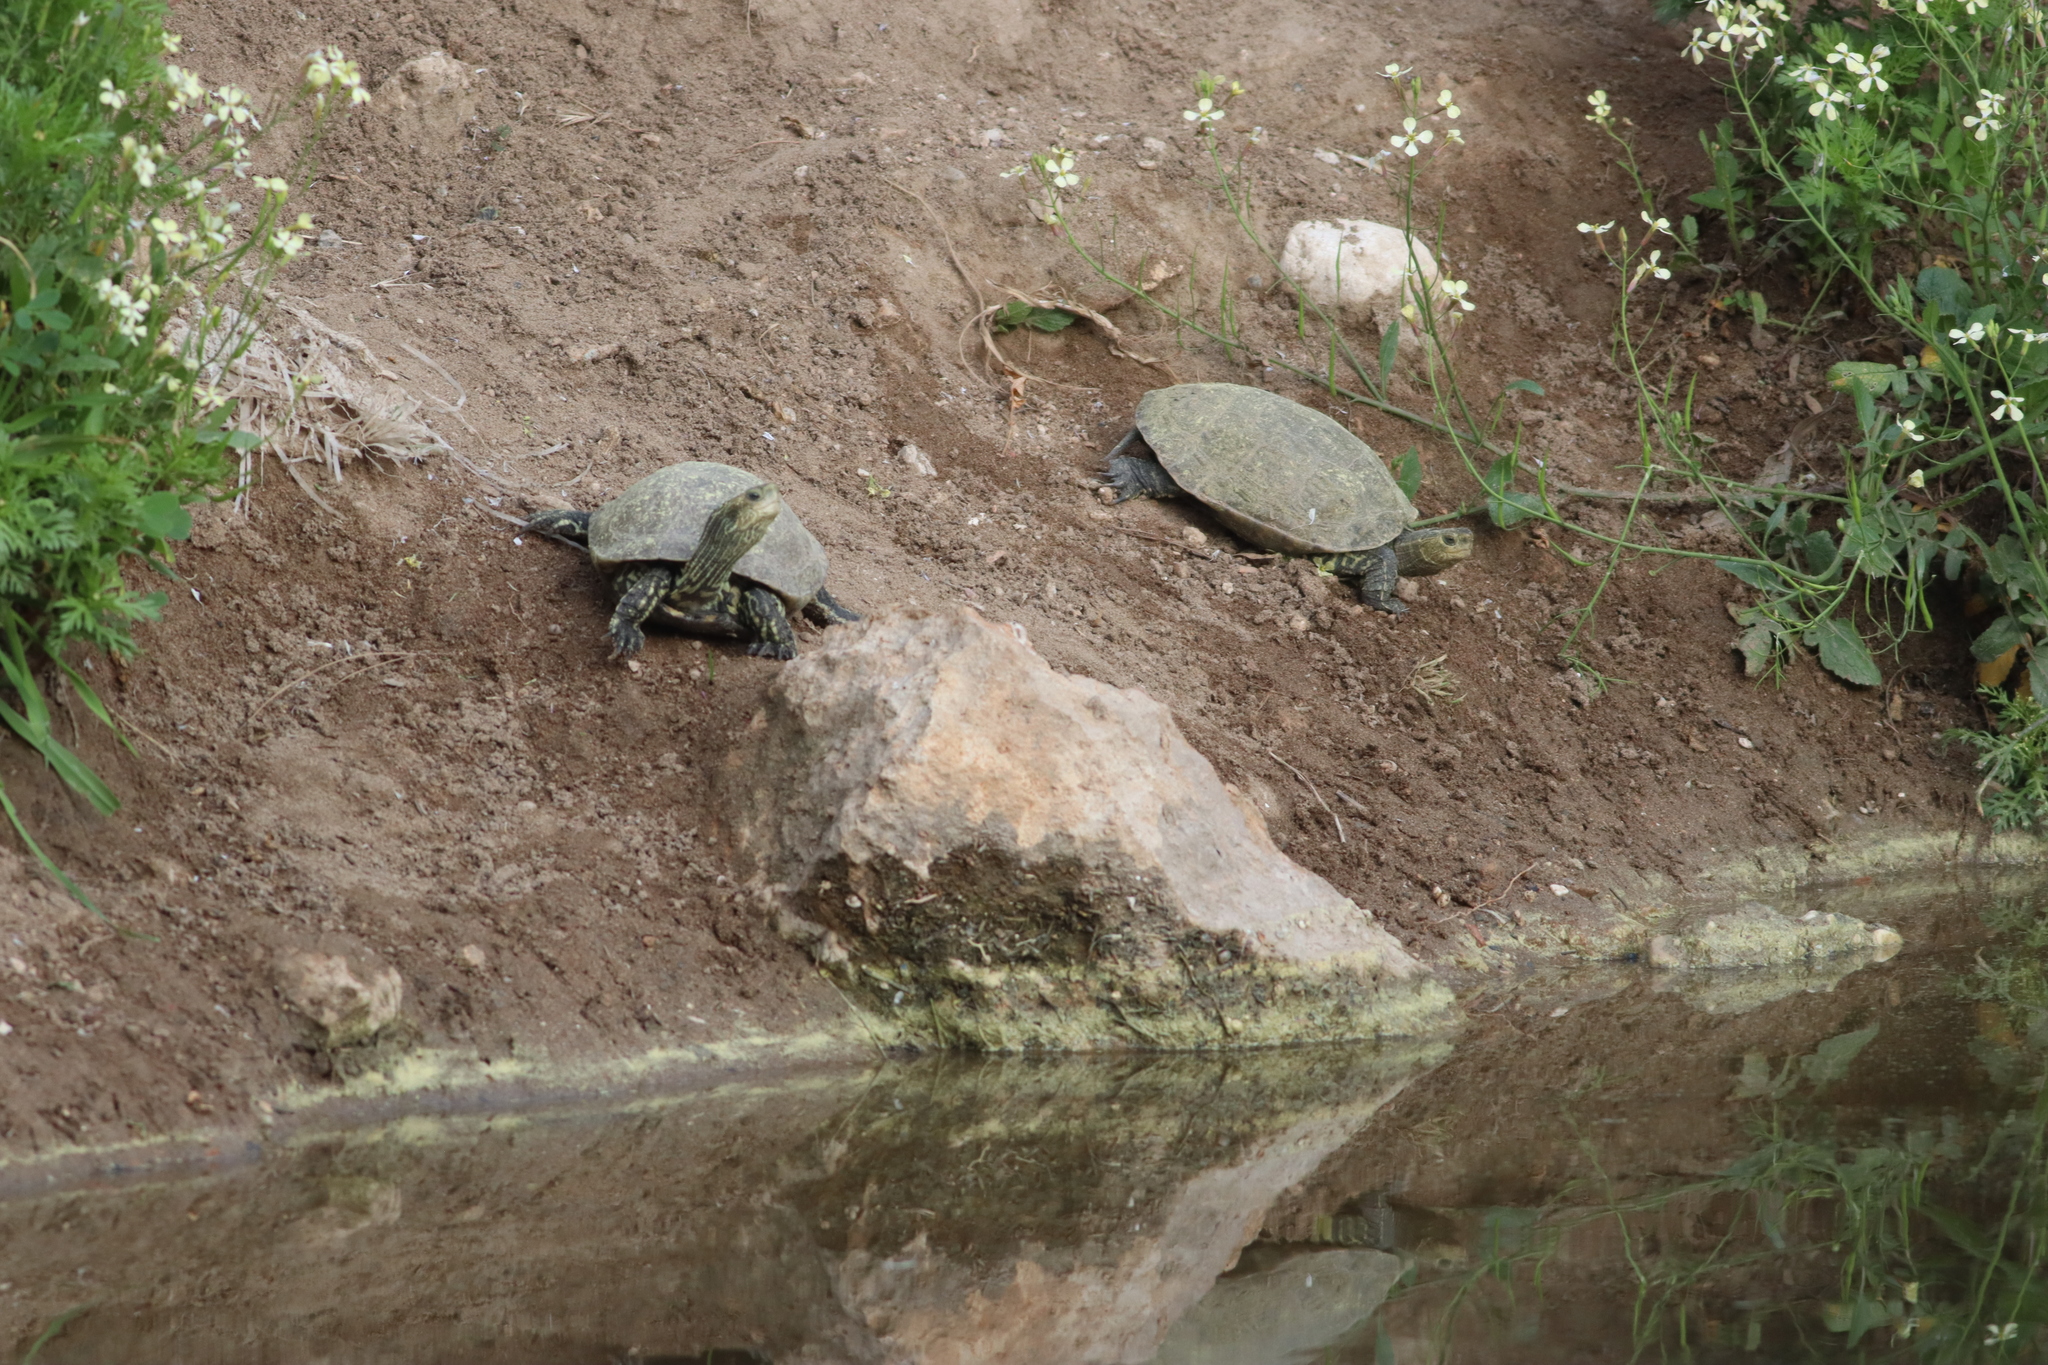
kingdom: Animalia
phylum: Chordata
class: Testudines
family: Geoemydidae
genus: Mauremys
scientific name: Mauremys rivulata
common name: Western caspian turtle
